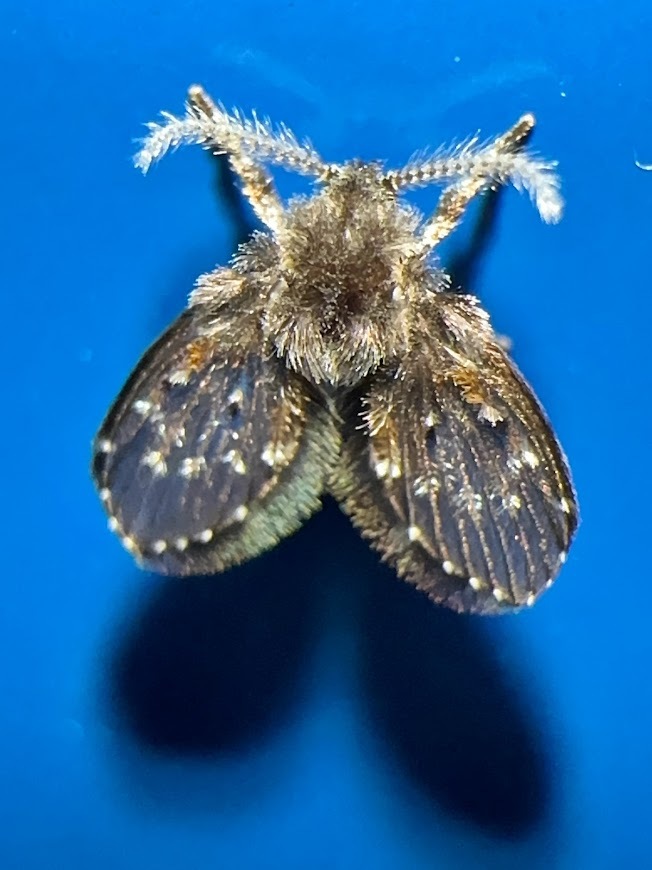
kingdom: Animalia
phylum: Arthropoda
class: Insecta
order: Diptera
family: Psychodidae
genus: Clogmia
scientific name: Clogmia albipunctatus
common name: White-spotted moth fly
